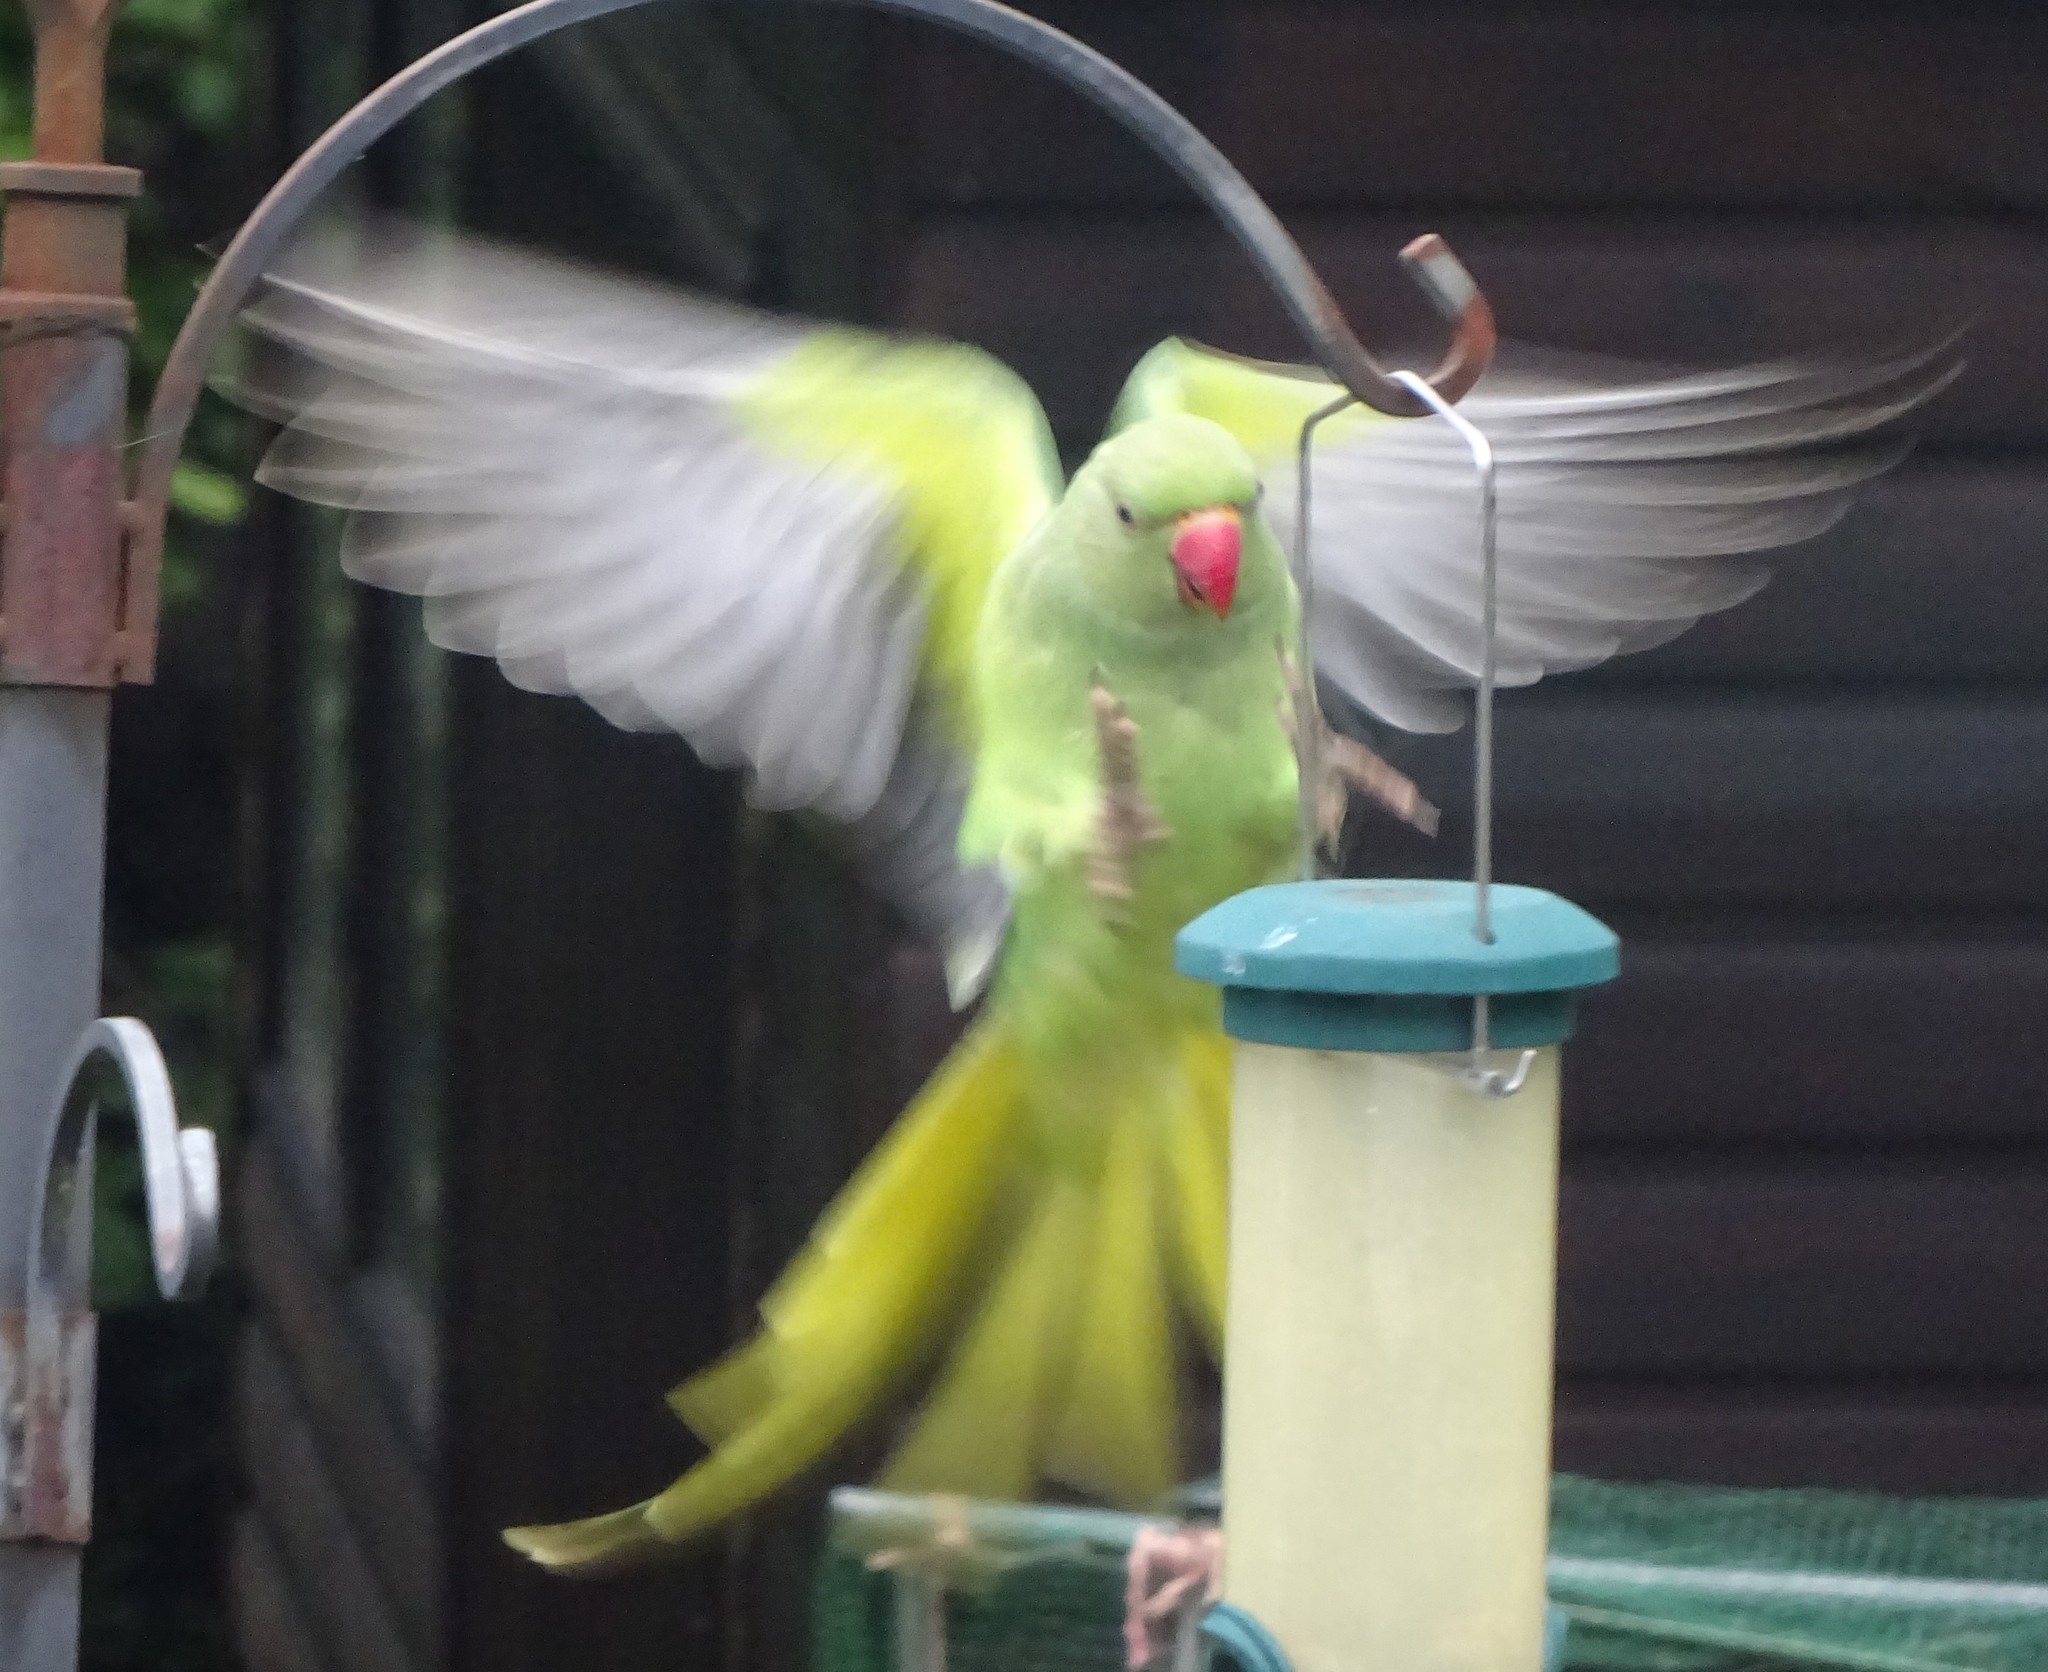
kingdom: Animalia
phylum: Chordata
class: Aves
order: Psittaciformes
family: Psittacidae
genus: Psittacula
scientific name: Psittacula krameri
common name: Rose-ringed parakeet
